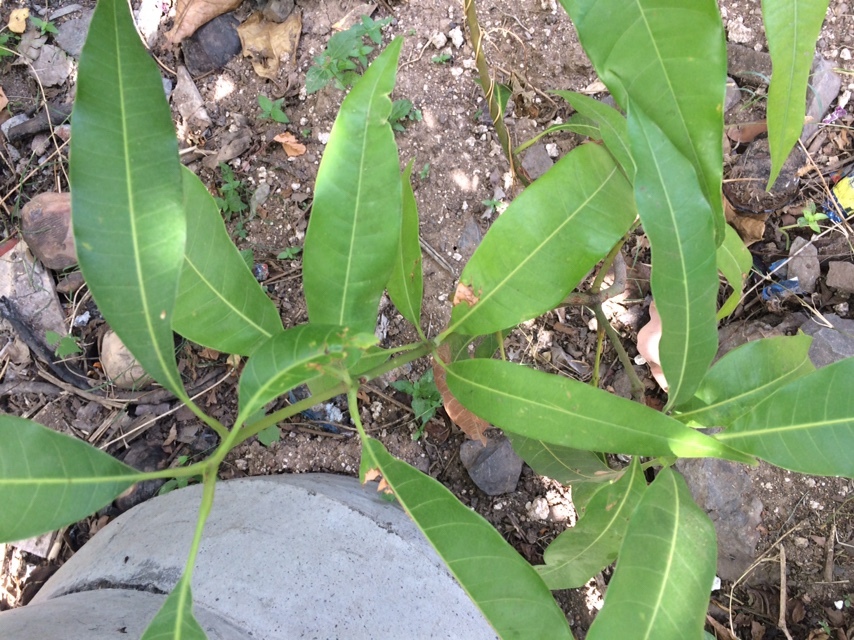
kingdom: Plantae
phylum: Tracheophyta
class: Magnoliopsida
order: Sapindales
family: Anacardiaceae
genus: Mangifera
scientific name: Mangifera indica
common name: Mango
